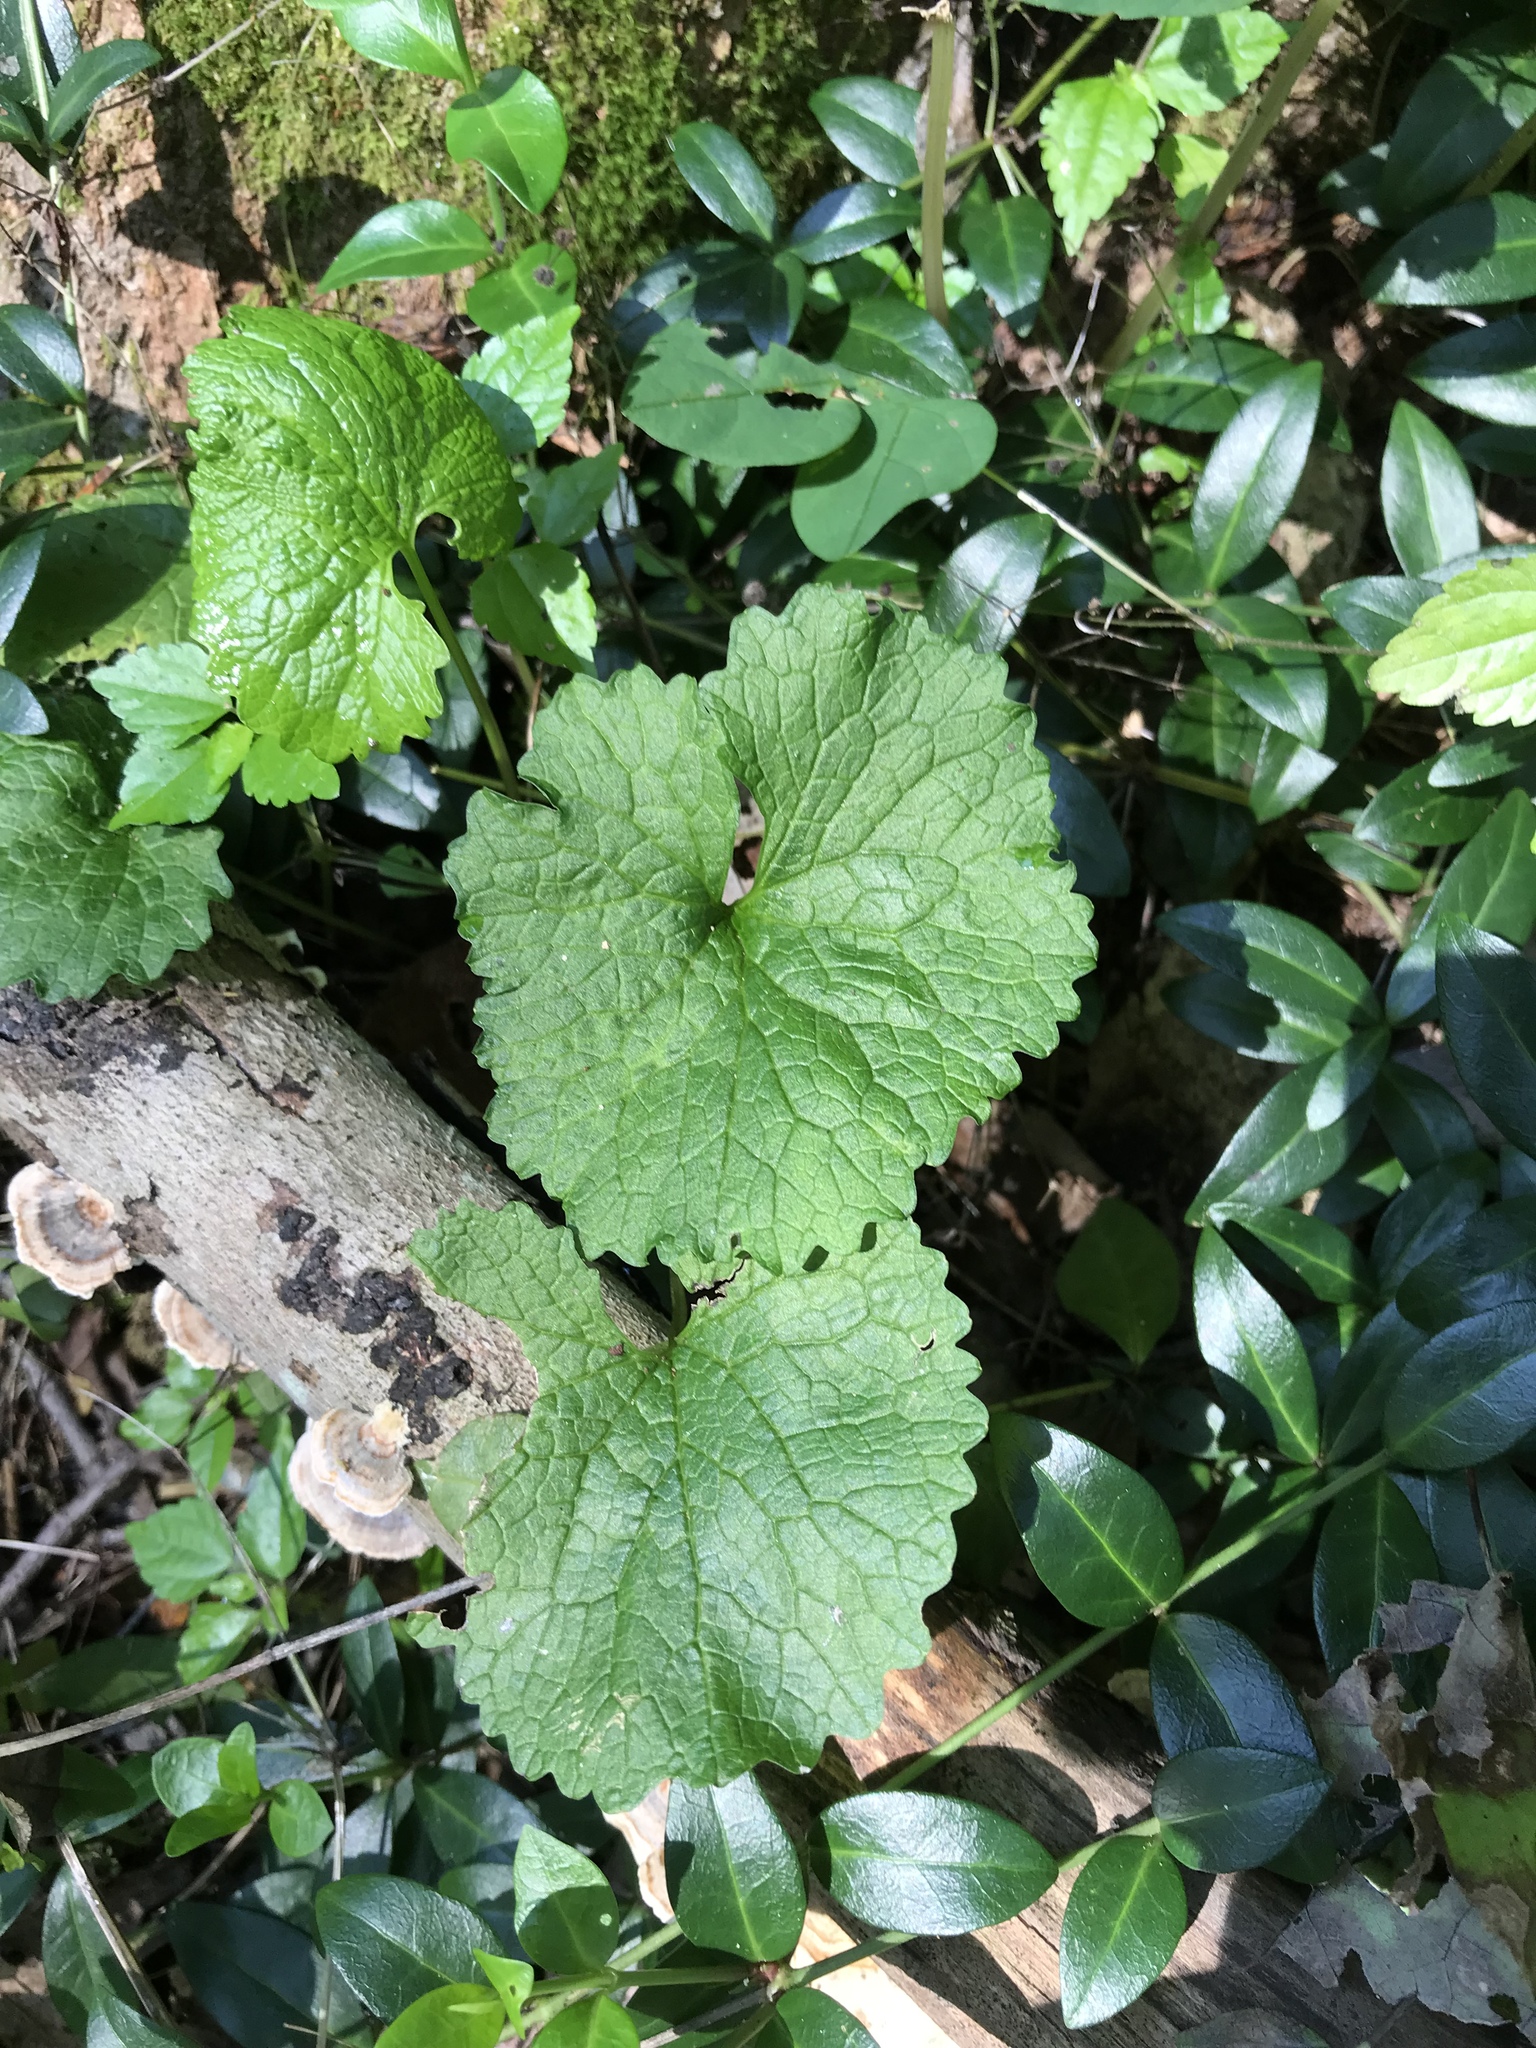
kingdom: Plantae
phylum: Tracheophyta
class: Magnoliopsida
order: Brassicales
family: Brassicaceae
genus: Alliaria
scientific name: Alliaria petiolata
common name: Garlic mustard
